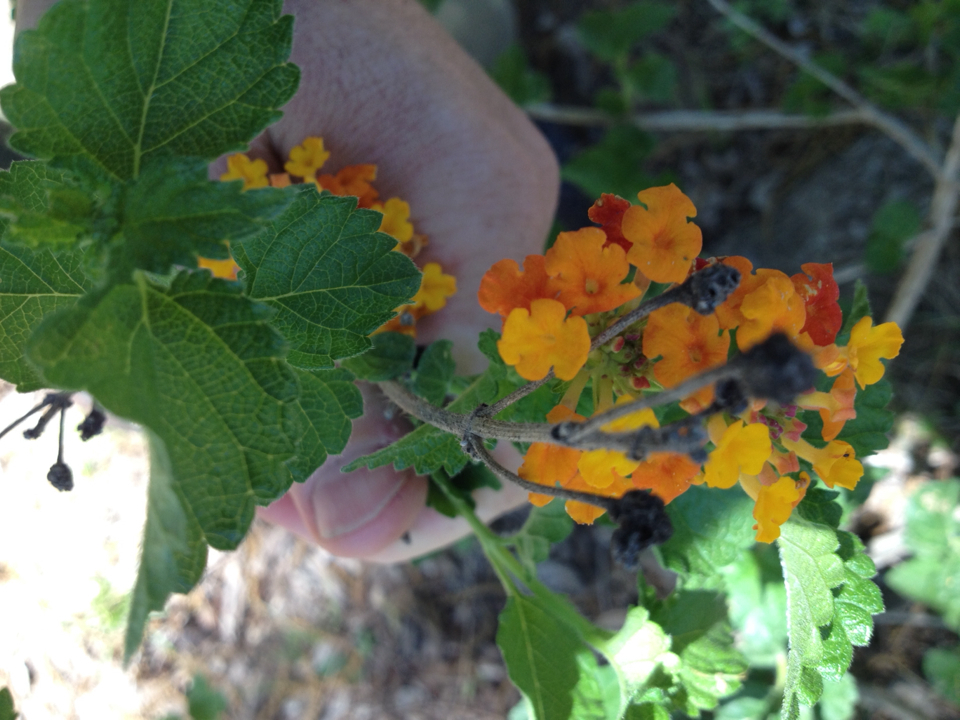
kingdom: Plantae
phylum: Tracheophyta
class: Magnoliopsida
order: Lamiales
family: Verbenaceae
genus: Lantana
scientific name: Lantana urticoides
